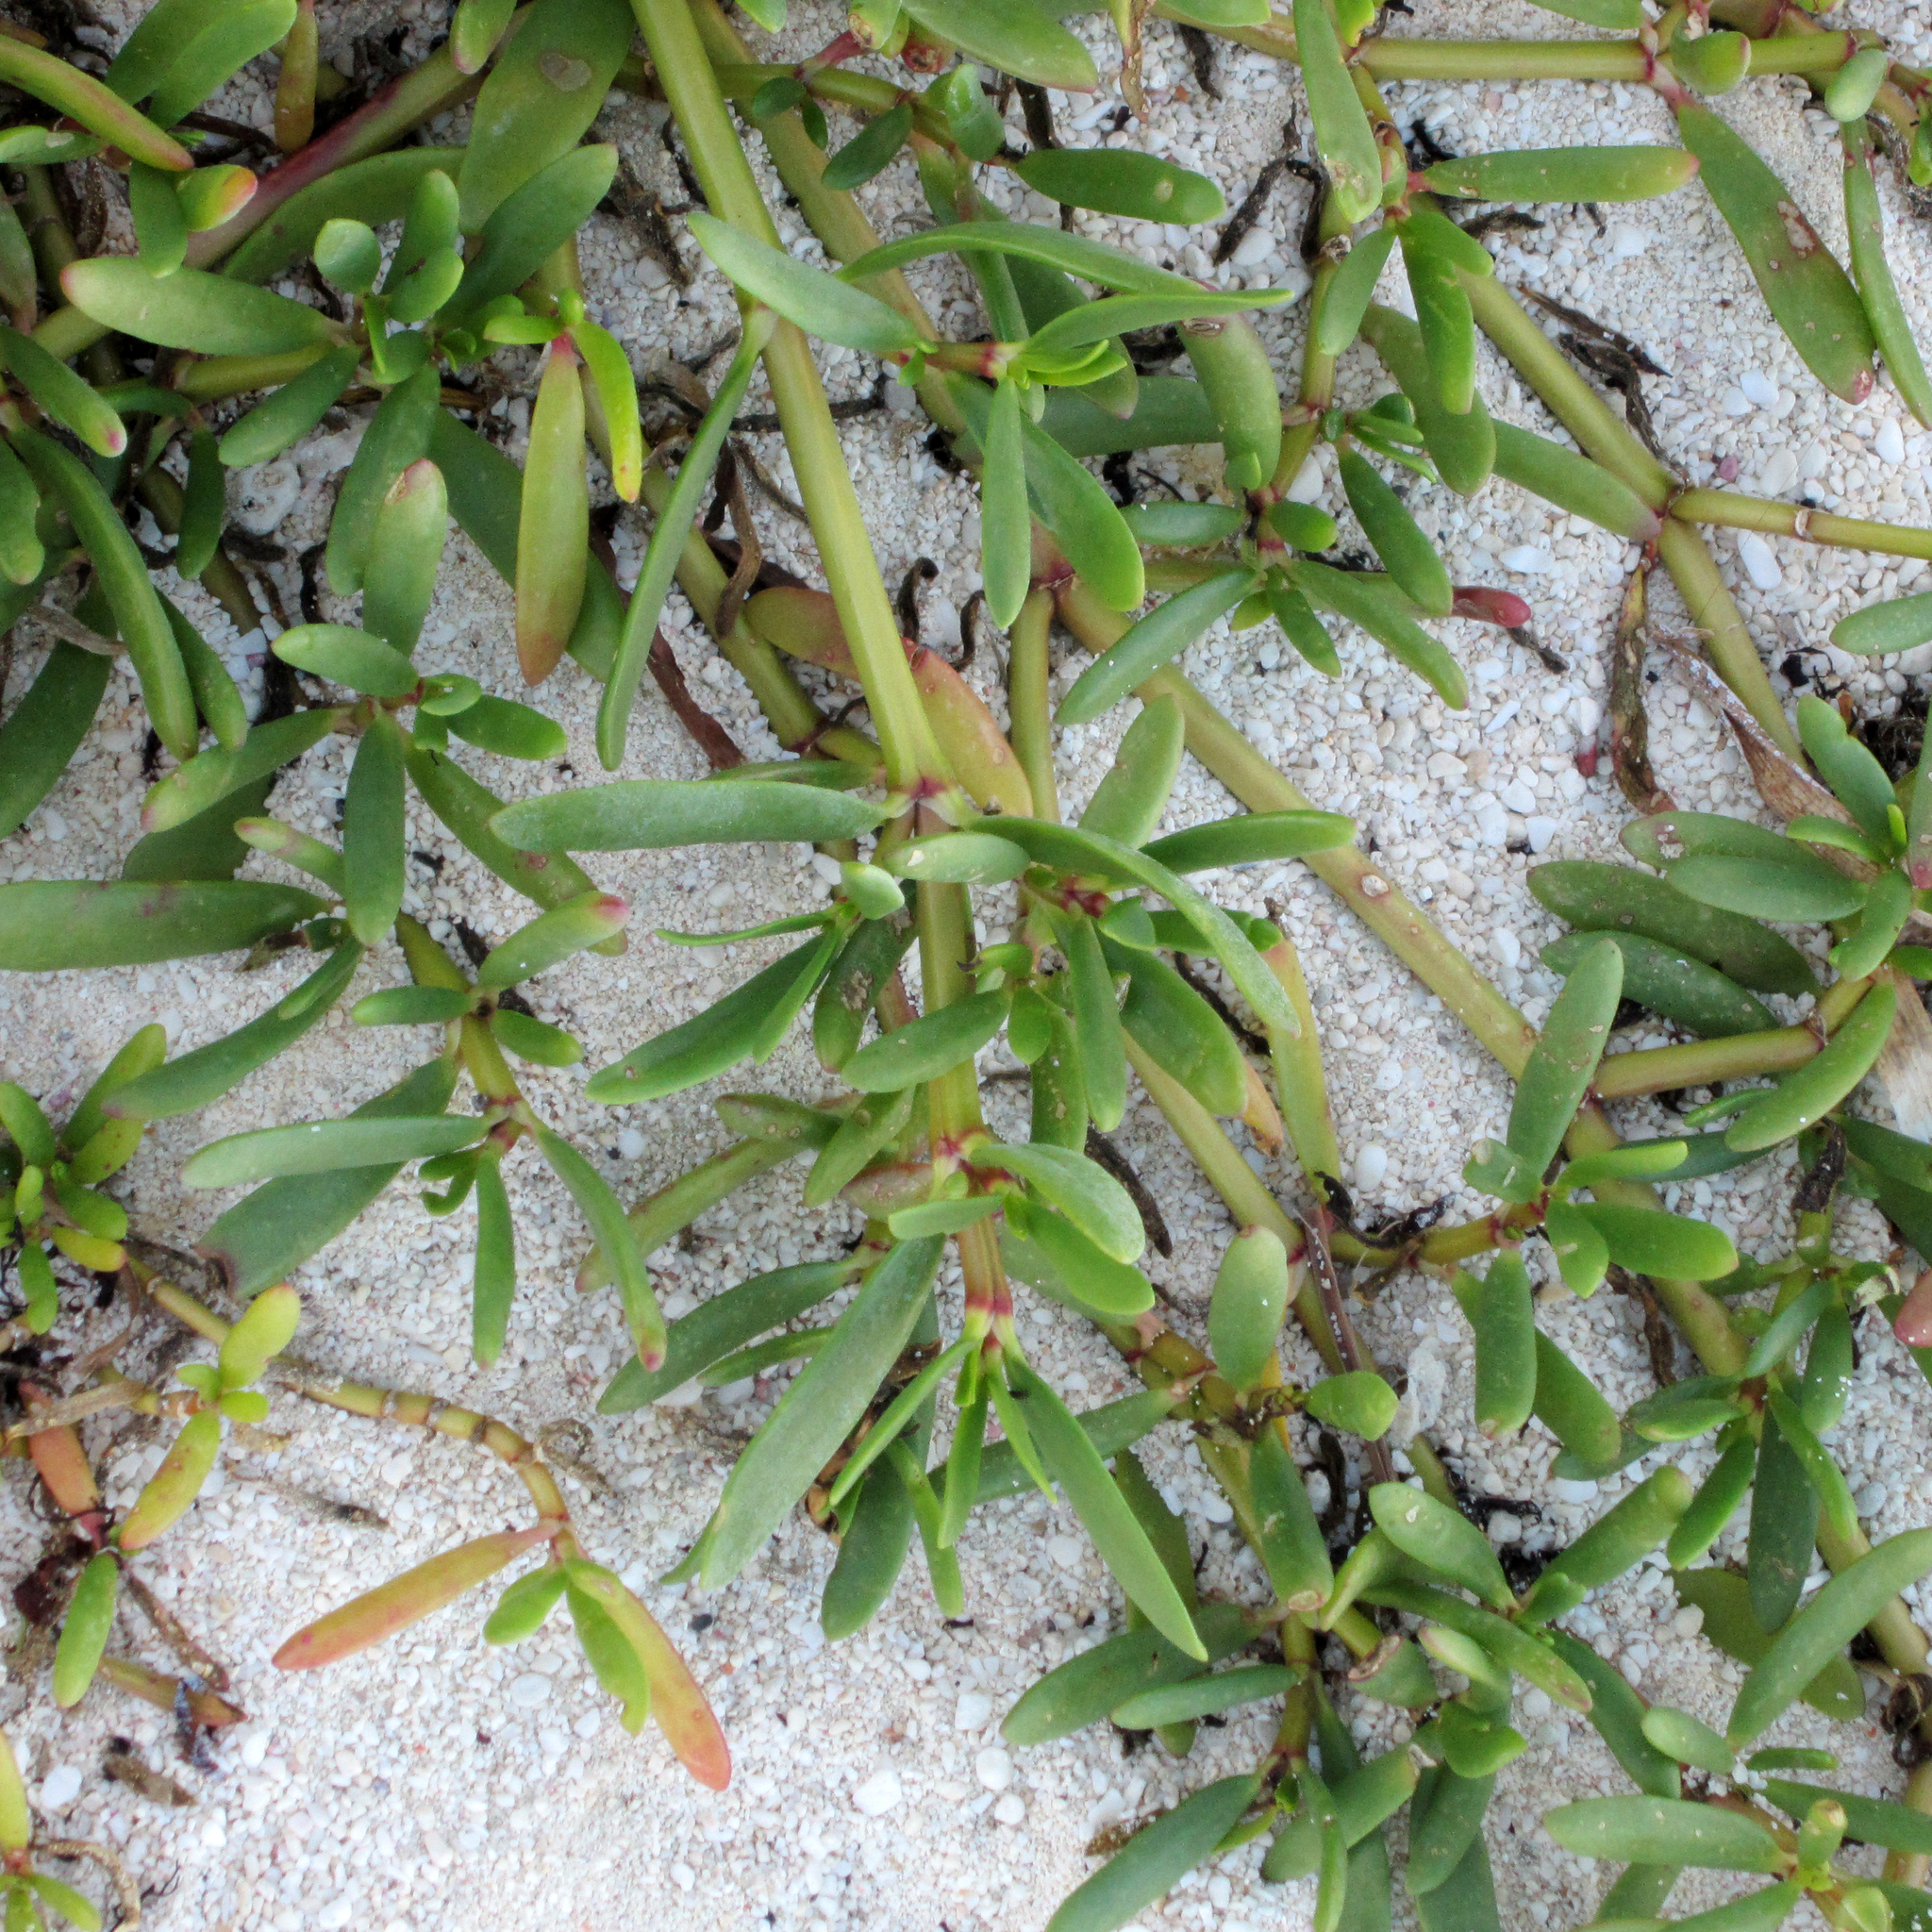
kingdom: Plantae
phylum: Tracheophyta
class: Magnoliopsida
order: Caryophyllales
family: Aizoaceae
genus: Sesuvium
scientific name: Sesuvium portulacastrum
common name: Sea-purslane
